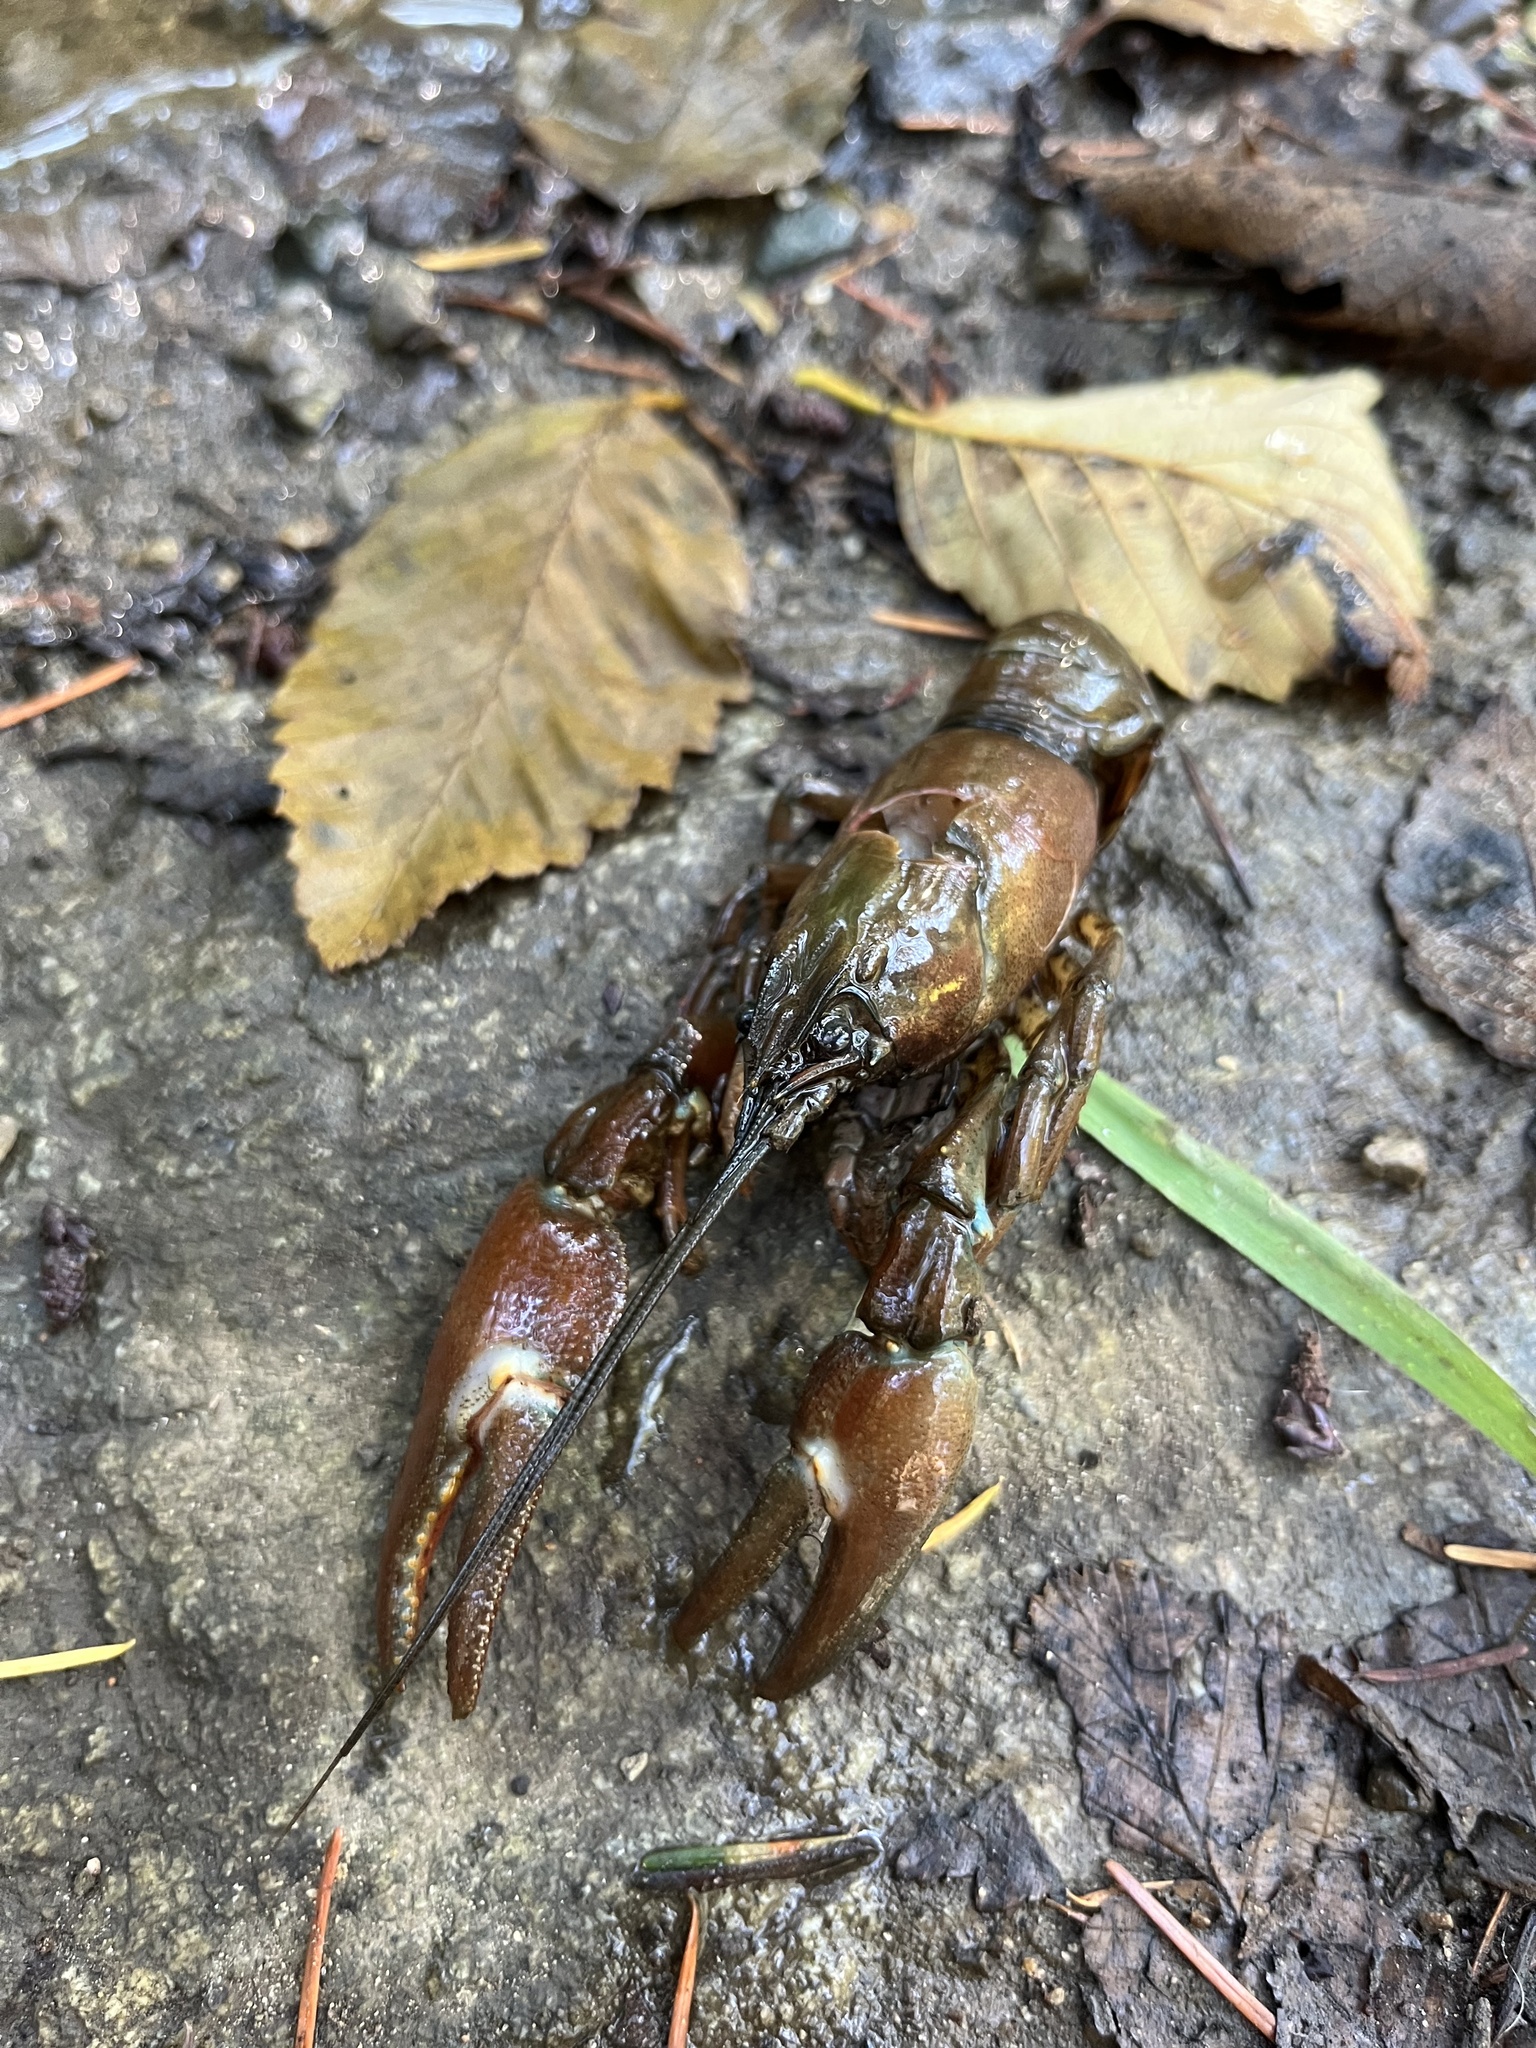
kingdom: Animalia
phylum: Arthropoda
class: Malacostraca
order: Decapoda
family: Astacidae
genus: Pacifastacus
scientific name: Pacifastacus leniusculus
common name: Signal crayfish
